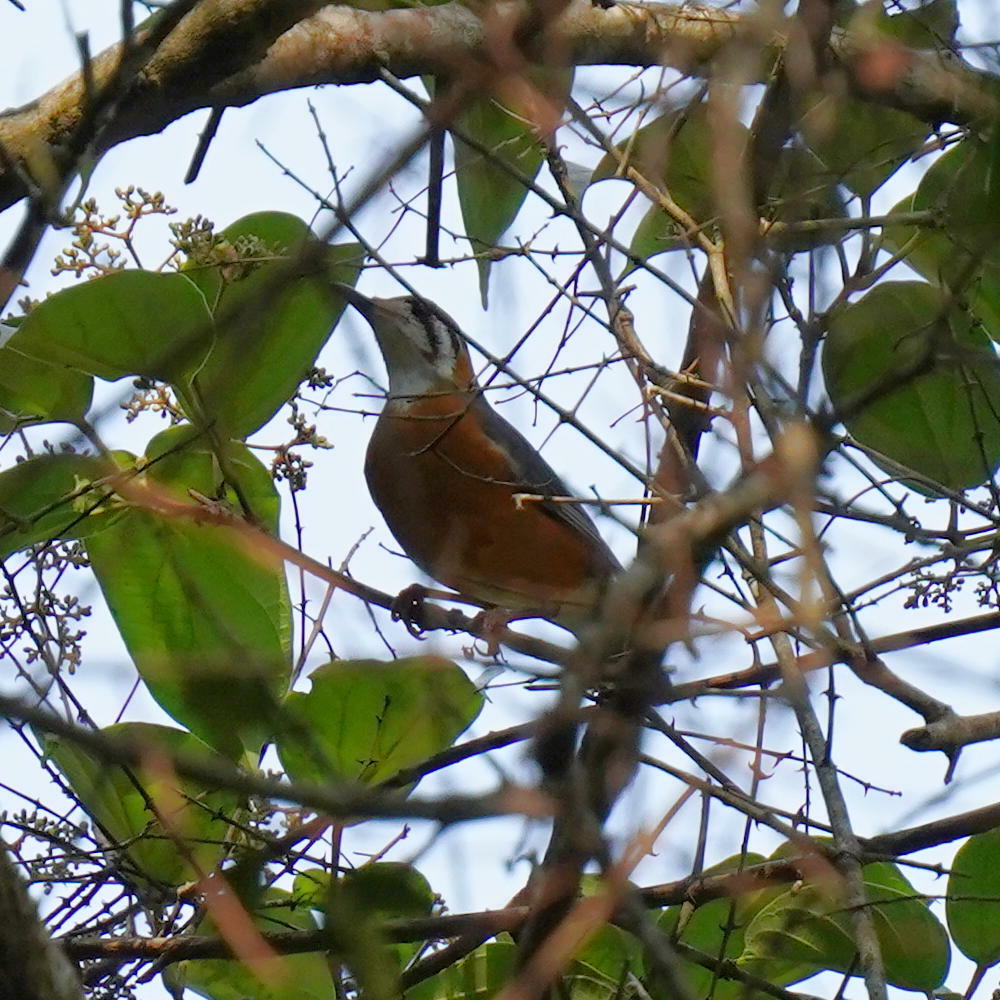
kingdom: Animalia
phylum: Chordata
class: Aves
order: Passeriformes
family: Turdidae
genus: Geokichla
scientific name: Geokichla citrina
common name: Orange-headed thrush
